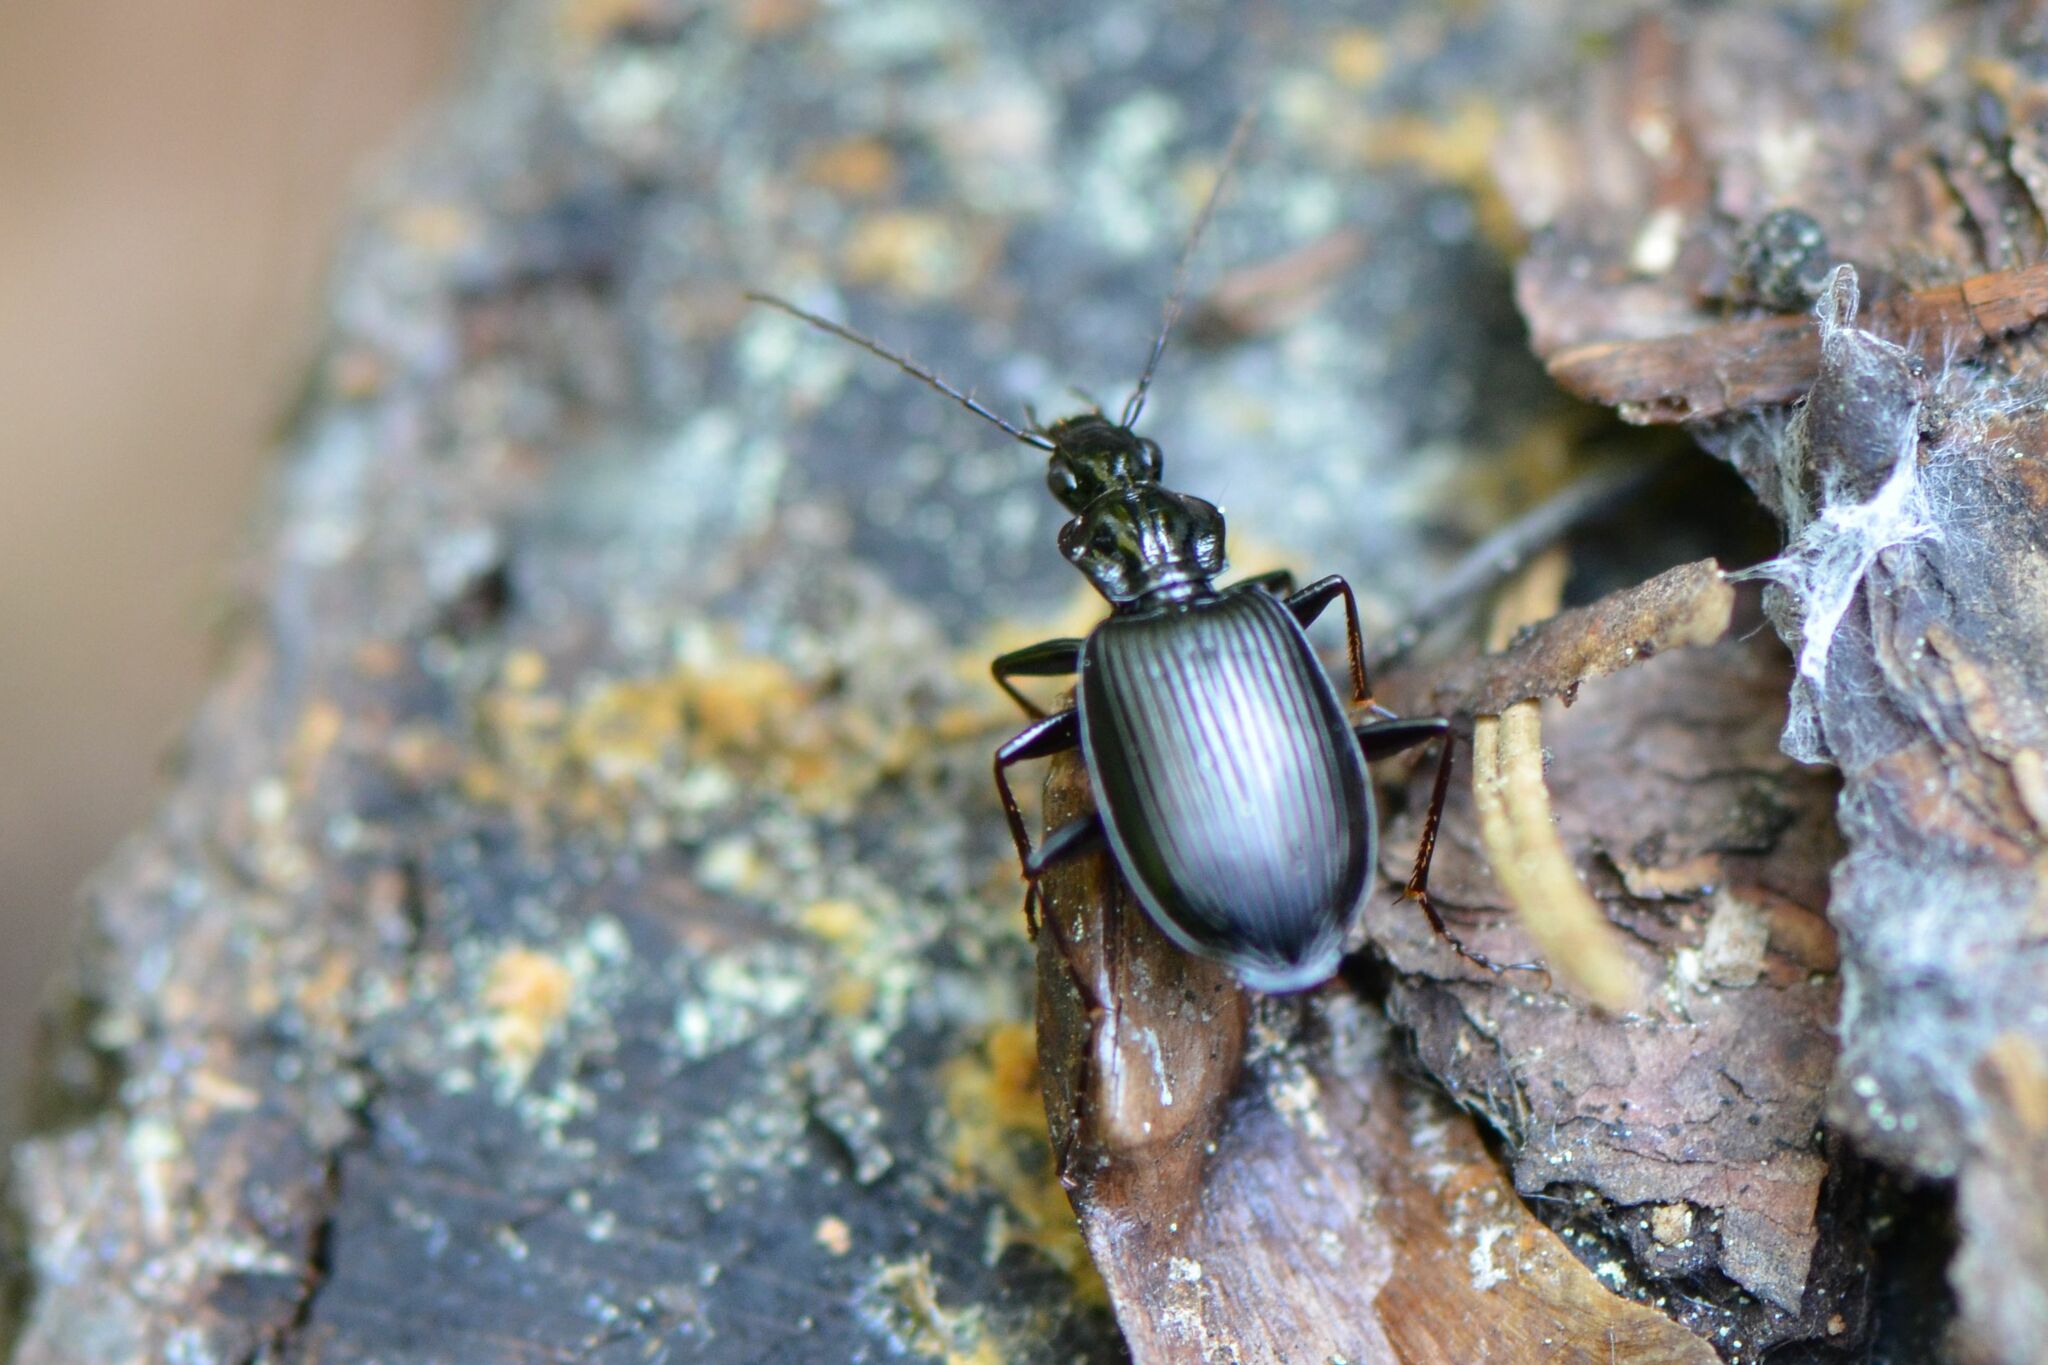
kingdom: Animalia
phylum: Arthropoda
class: Insecta
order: Coleoptera
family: Carabidae
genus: Platynus
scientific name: Platynus assimilis
